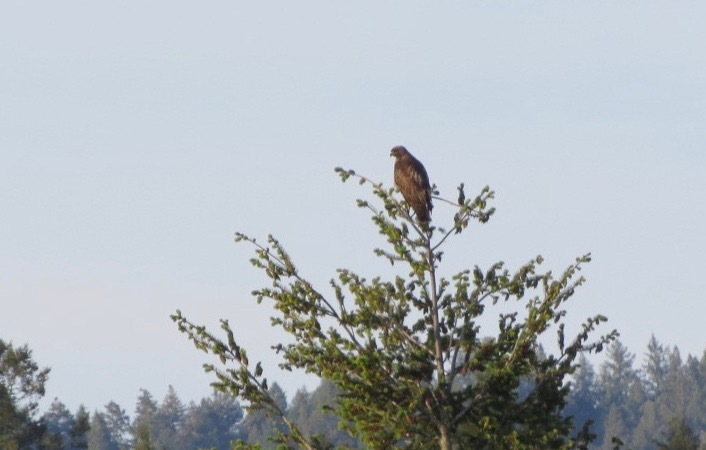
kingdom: Animalia
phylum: Chordata
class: Aves
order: Accipitriformes
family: Accipitridae
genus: Buteo
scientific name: Buteo jamaicensis
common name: Red-tailed hawk
